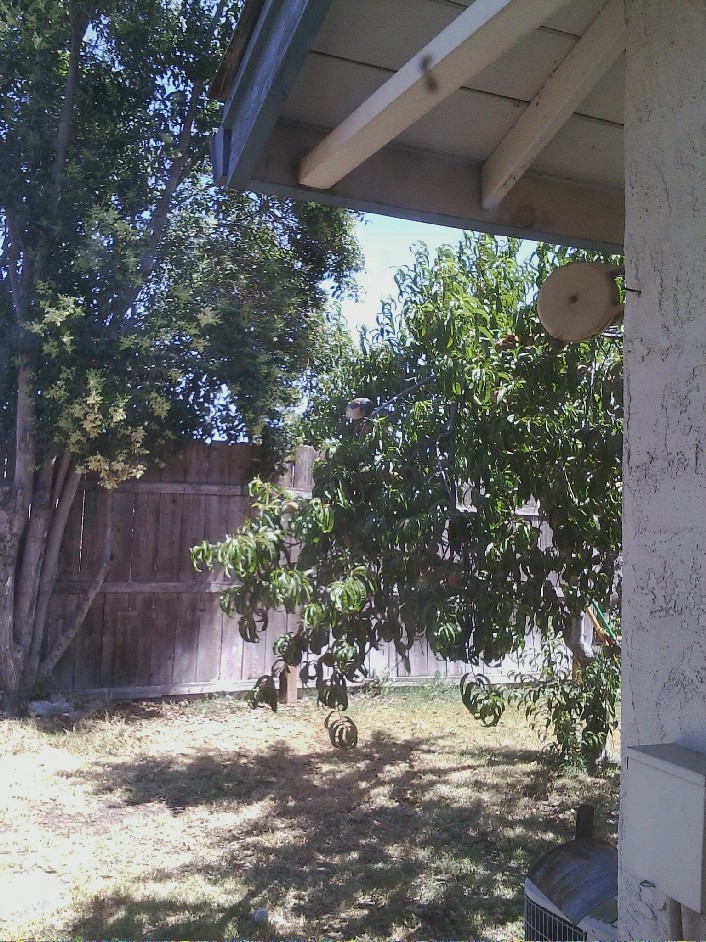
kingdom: Animalia
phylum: Chordata
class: Aves
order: Passeriformes
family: Corvidae
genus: Aphelocoma
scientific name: Aphelocoma californica
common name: California scrub-jay
